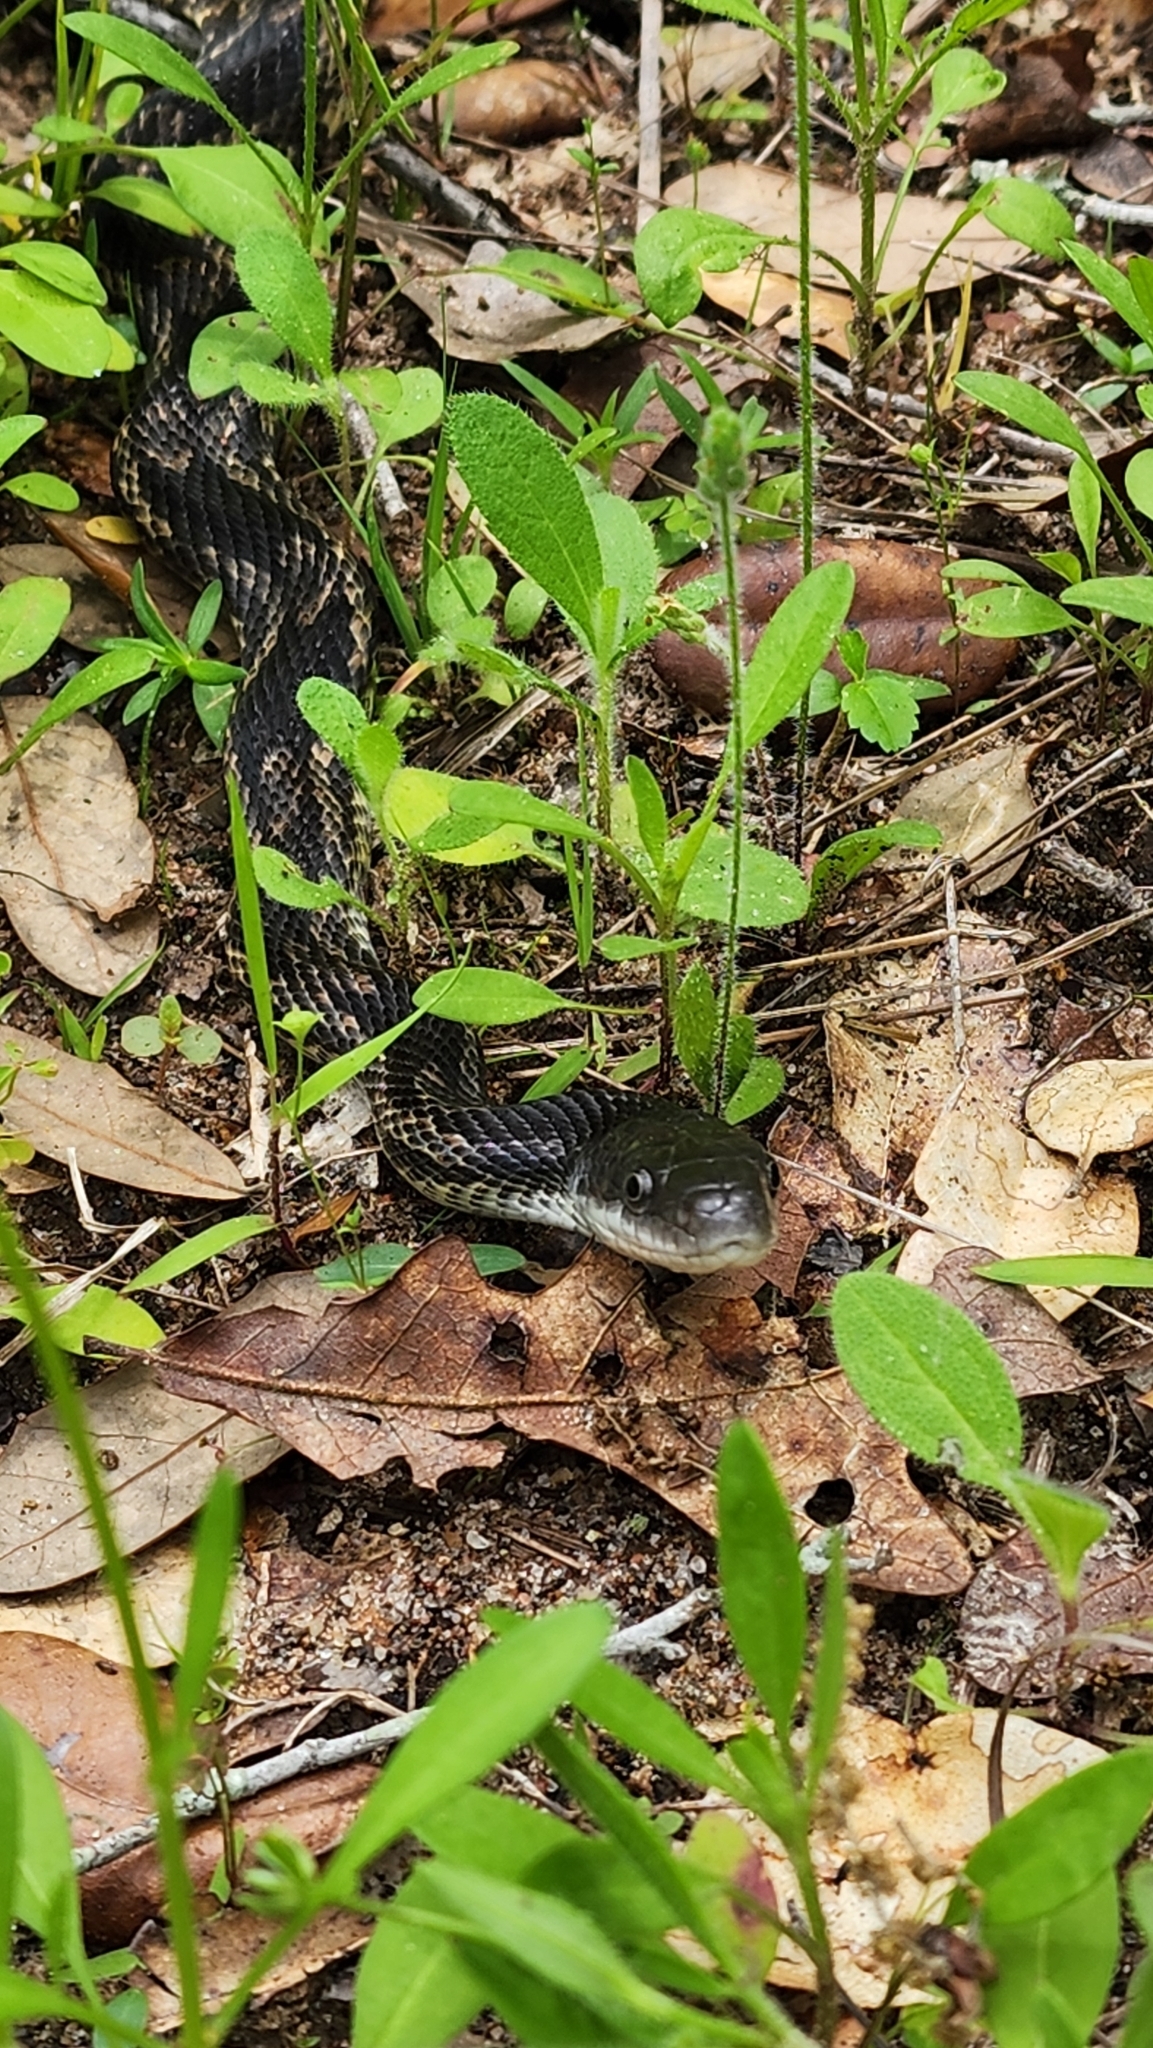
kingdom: Animalia
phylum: Chordata
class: Squamata
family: Colubridae
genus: Pantherophis
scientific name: Pantherophis obsoletus
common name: Black rat snake
